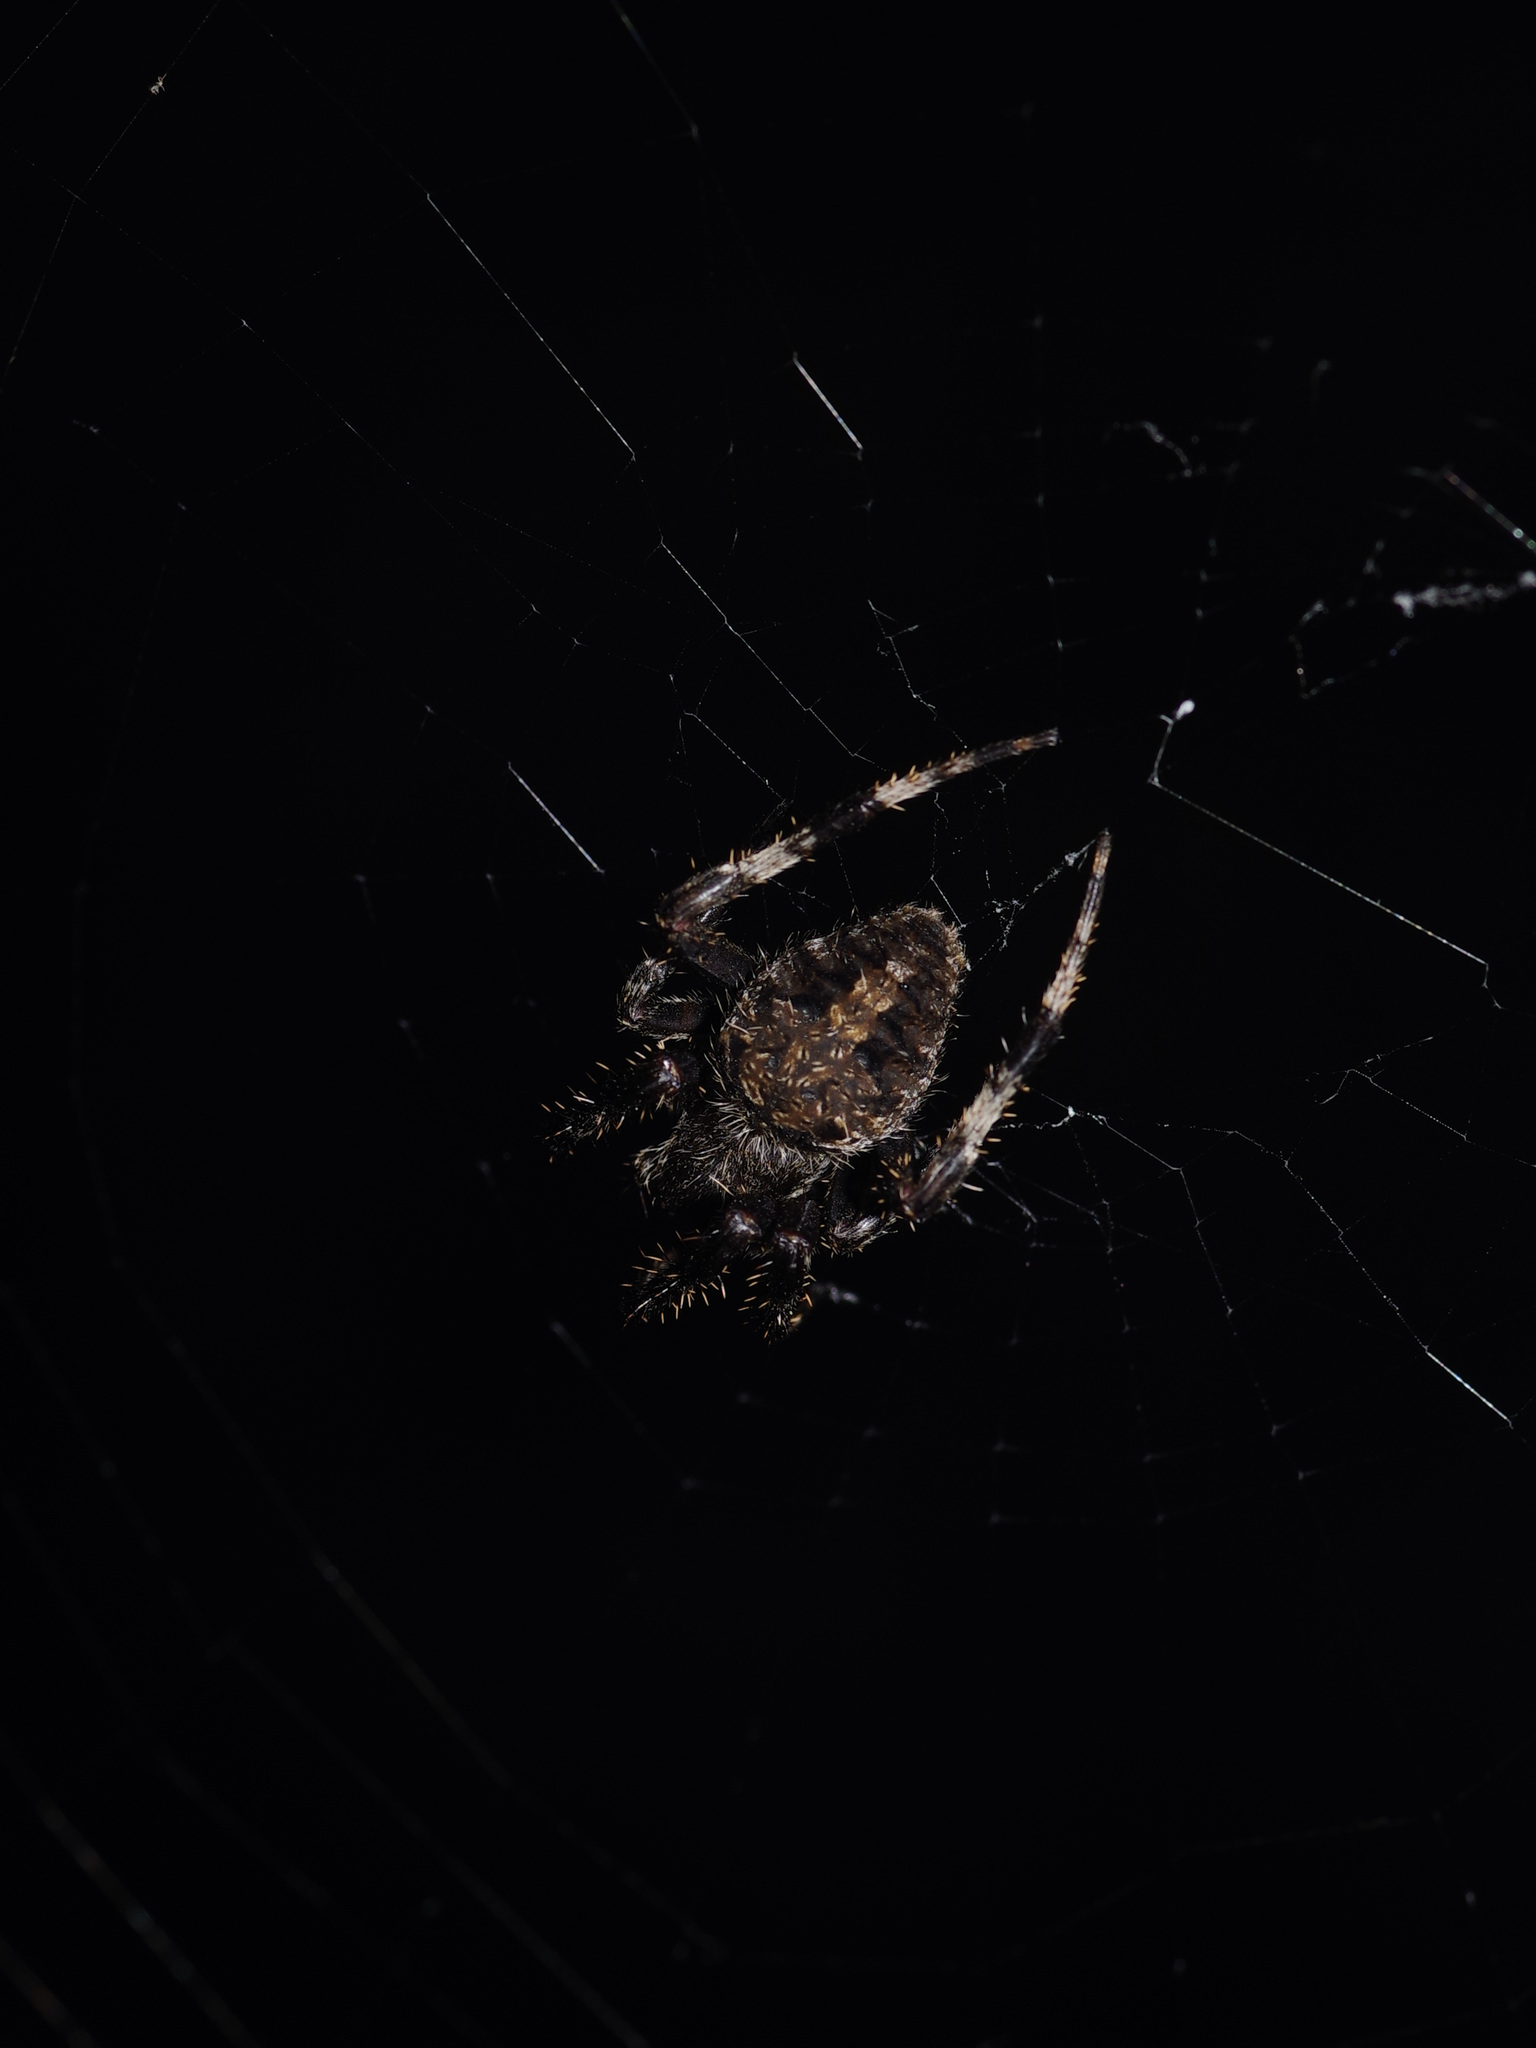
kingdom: Animalia
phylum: Arthropoda
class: Arachnida
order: Araneae
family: Araneidae
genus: Neoscona
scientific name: Neoscona crucifera
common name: Spotted orbweaver
